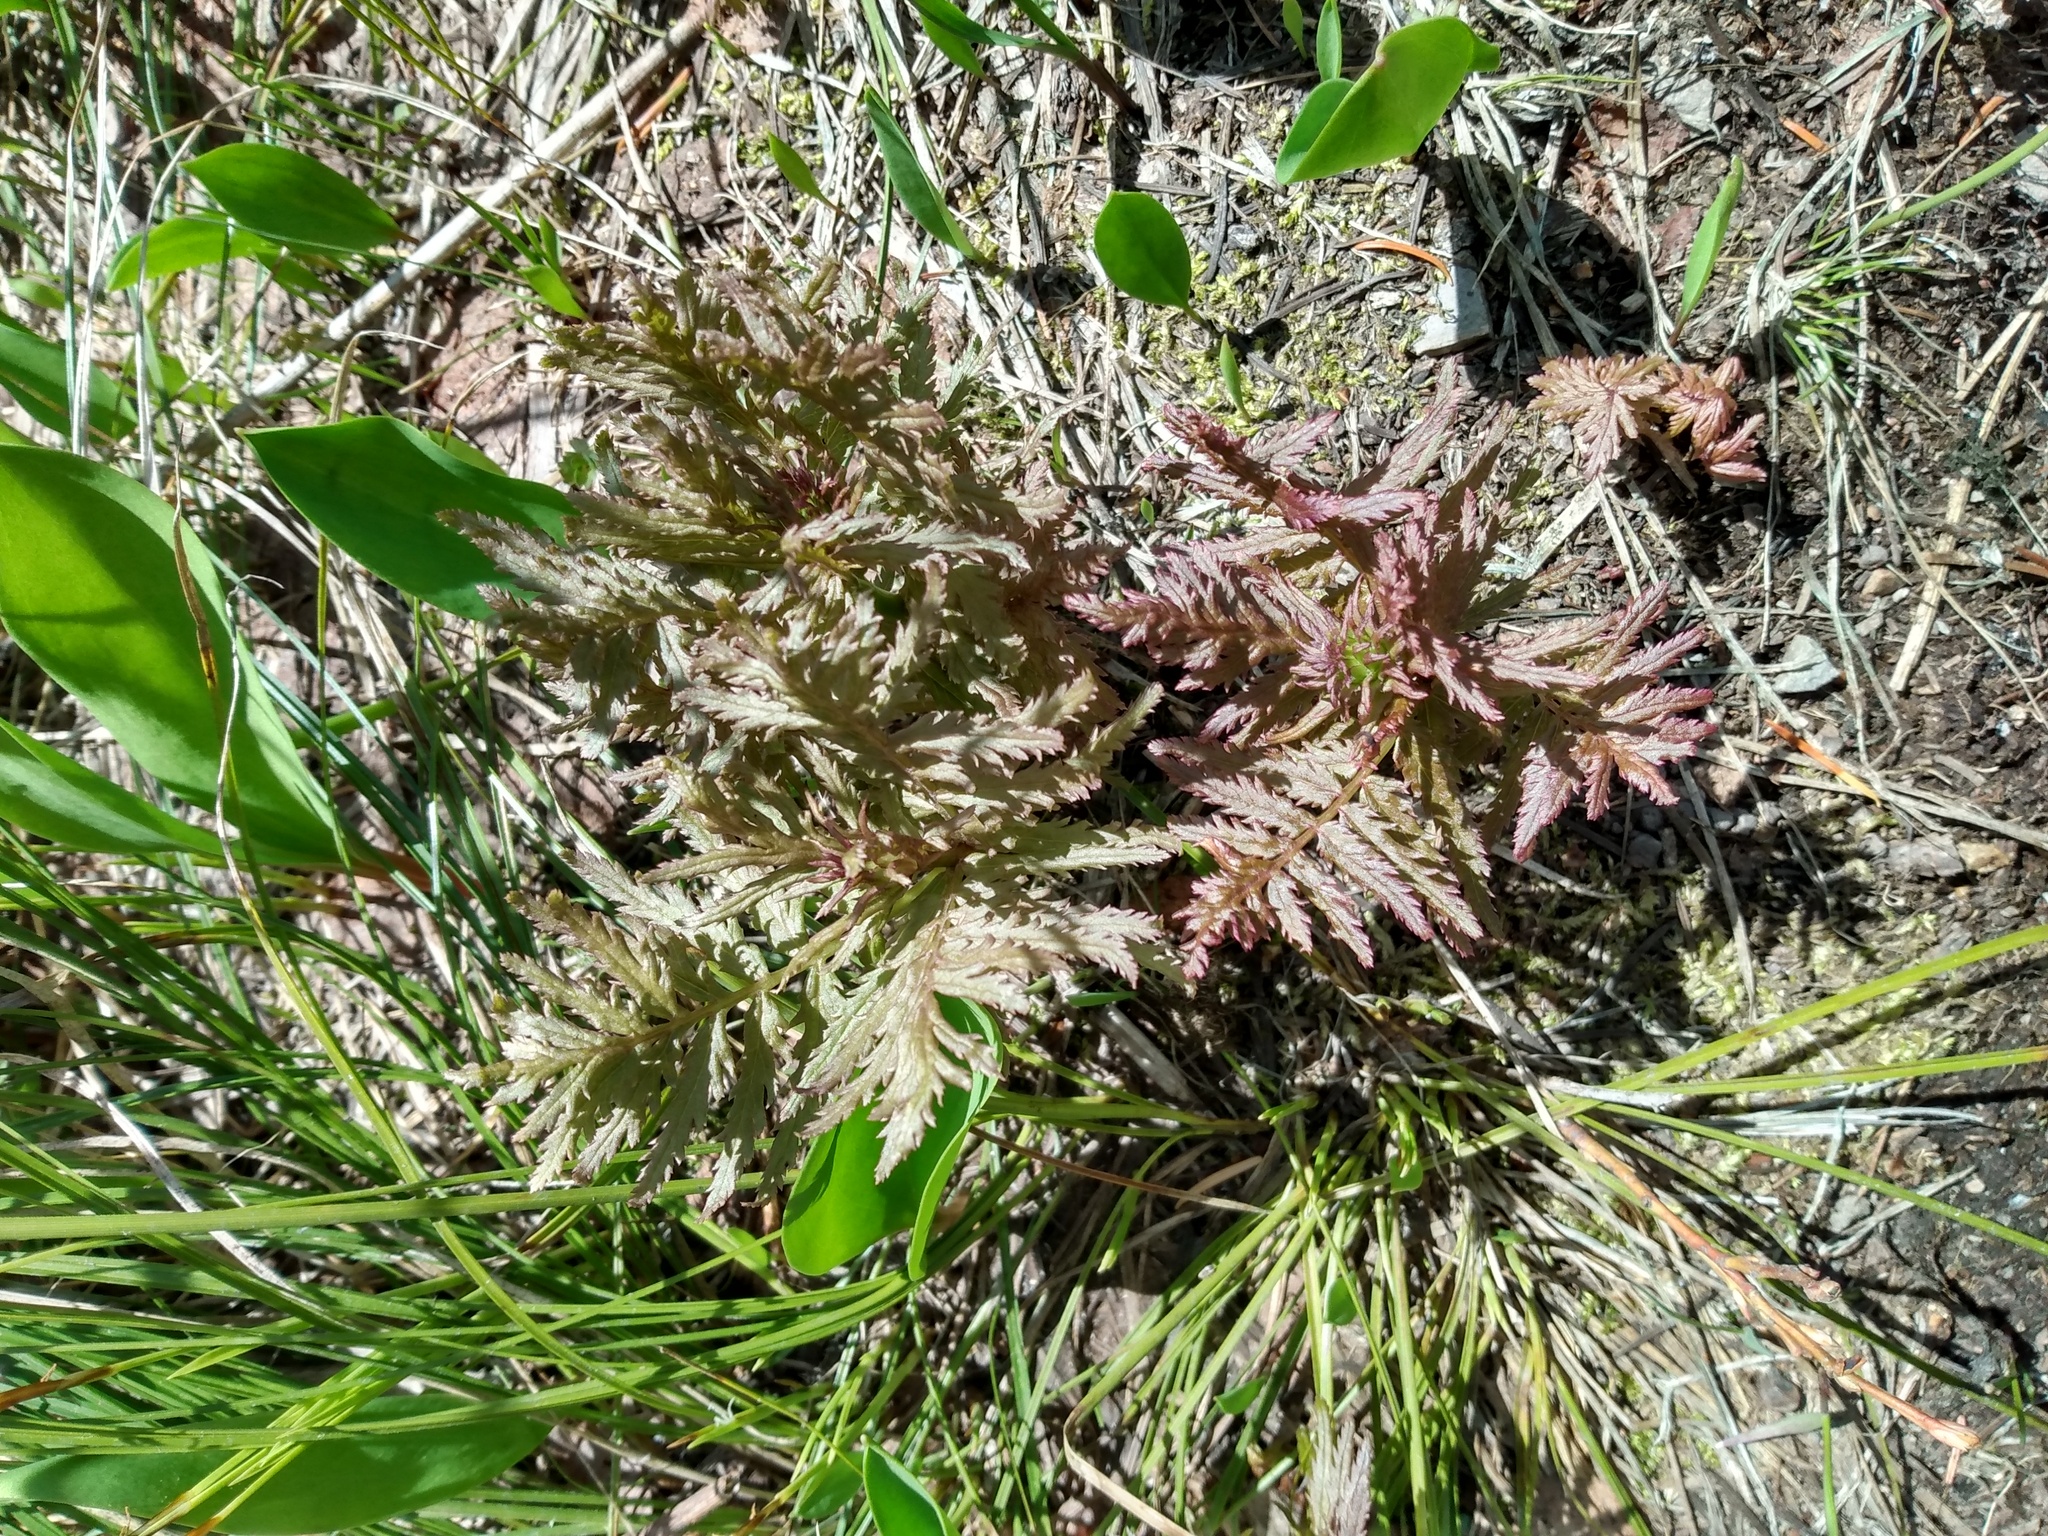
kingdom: Plantae
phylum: Tracheophyta
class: Magnoliopsida
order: Lamiales
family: Orobanchaceae
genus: Pedicularis
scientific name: Pedicularis bracteosa
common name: Bracted lousewort
